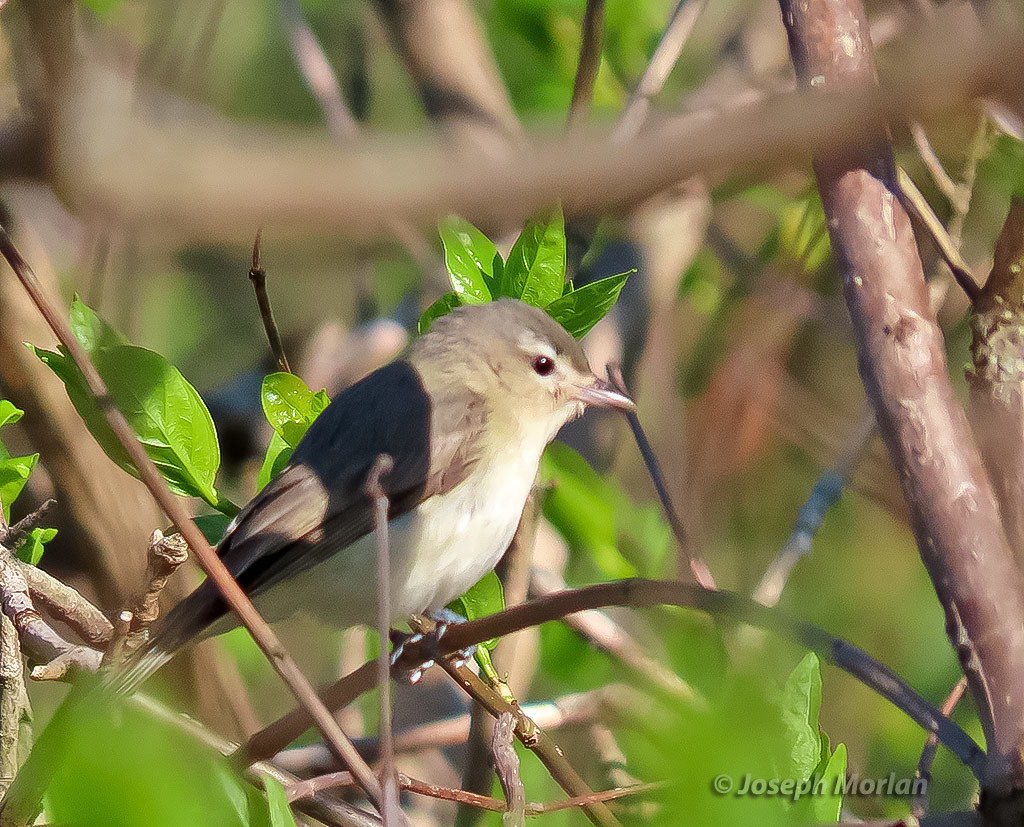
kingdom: Animalia
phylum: Chordata
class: Aves
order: Passeriformes
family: Vireonidae
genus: Vireo
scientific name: Vireo gilvus
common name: Warbling vireo
